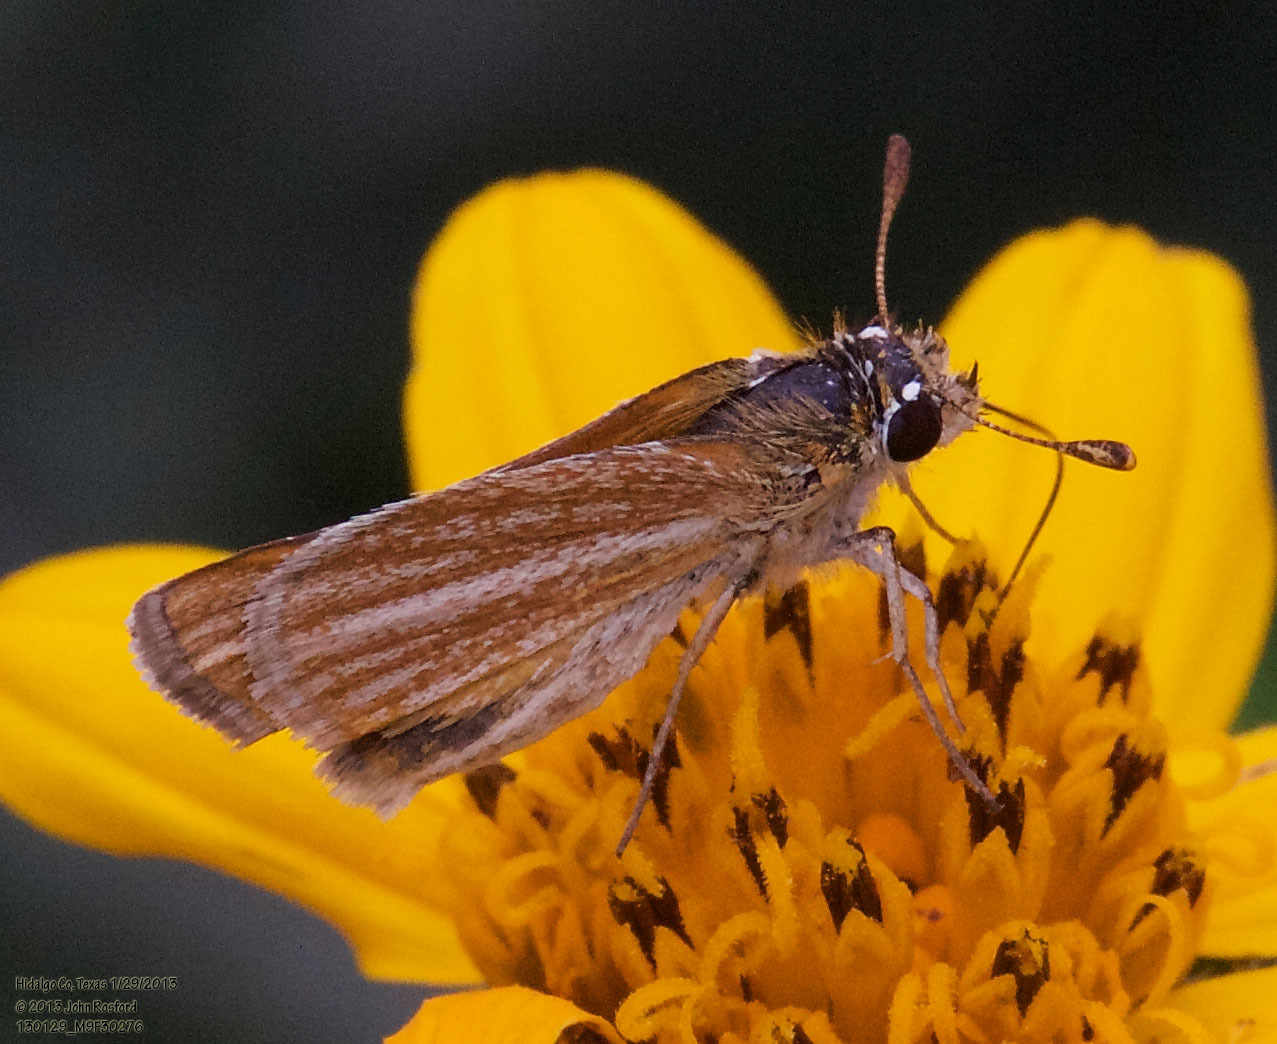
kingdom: Animalia
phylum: Arthropoda
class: Insecta
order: Lepidoptera
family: Hesperiidae
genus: Copaeodes
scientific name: Copaeodes minima
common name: Southern skipperling
